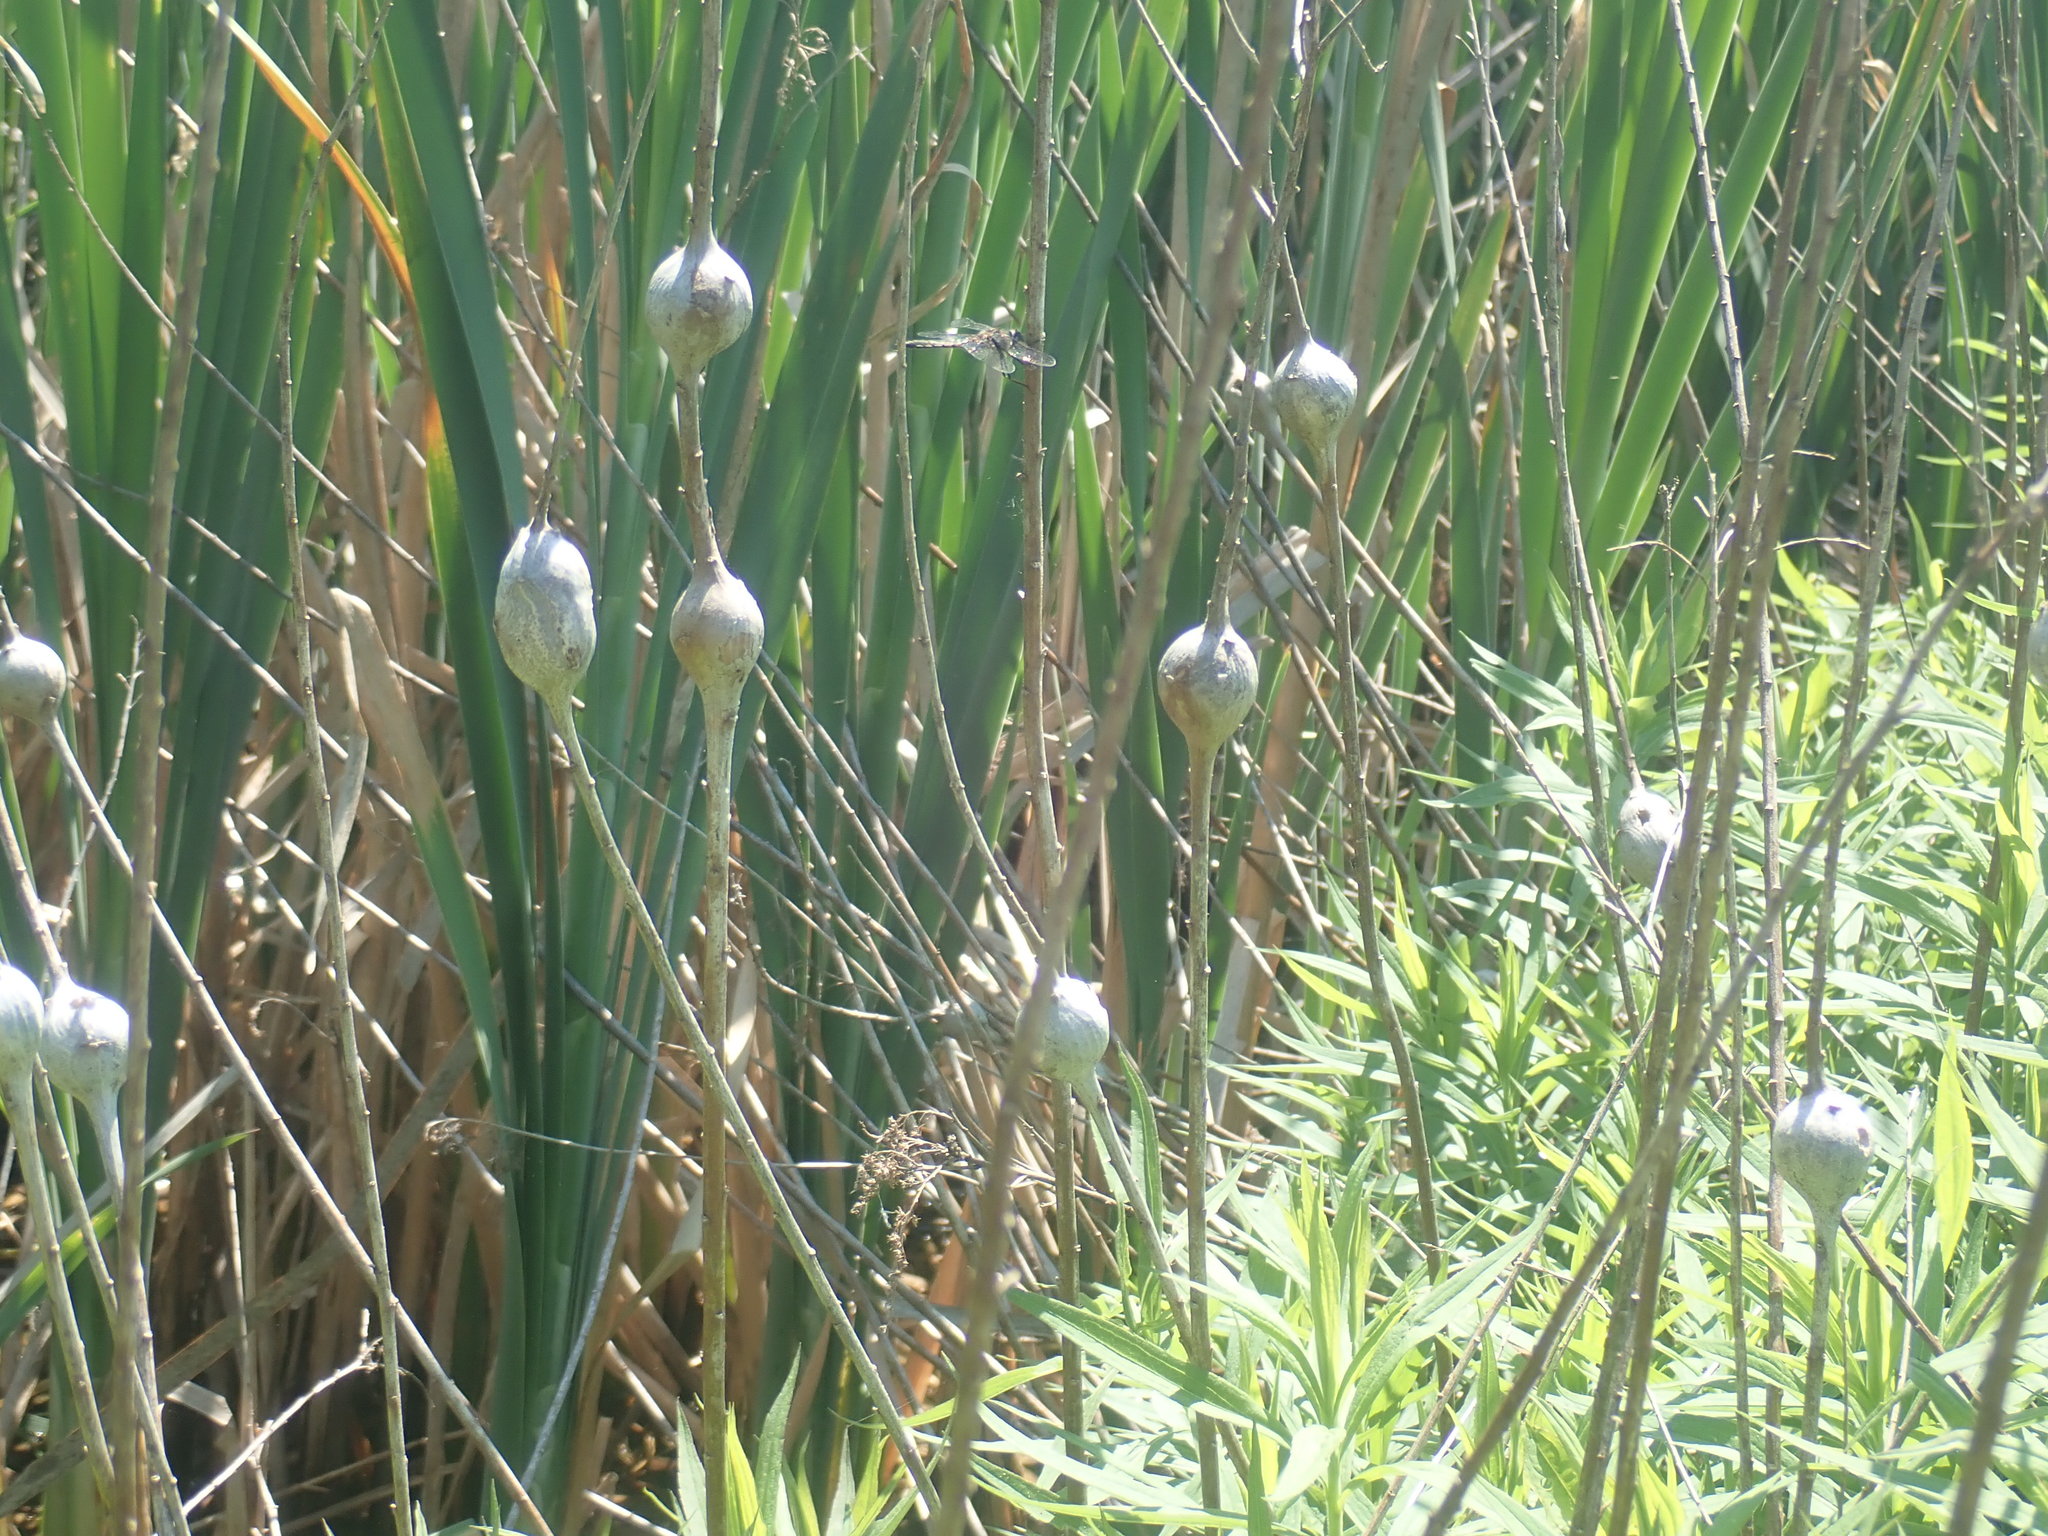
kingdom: Animalia
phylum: Arthropoda
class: Insecta
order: Diptera
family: Tephritidae
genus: Eurosta
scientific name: Eurosta solidaginis
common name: Goldenrod gall fly
